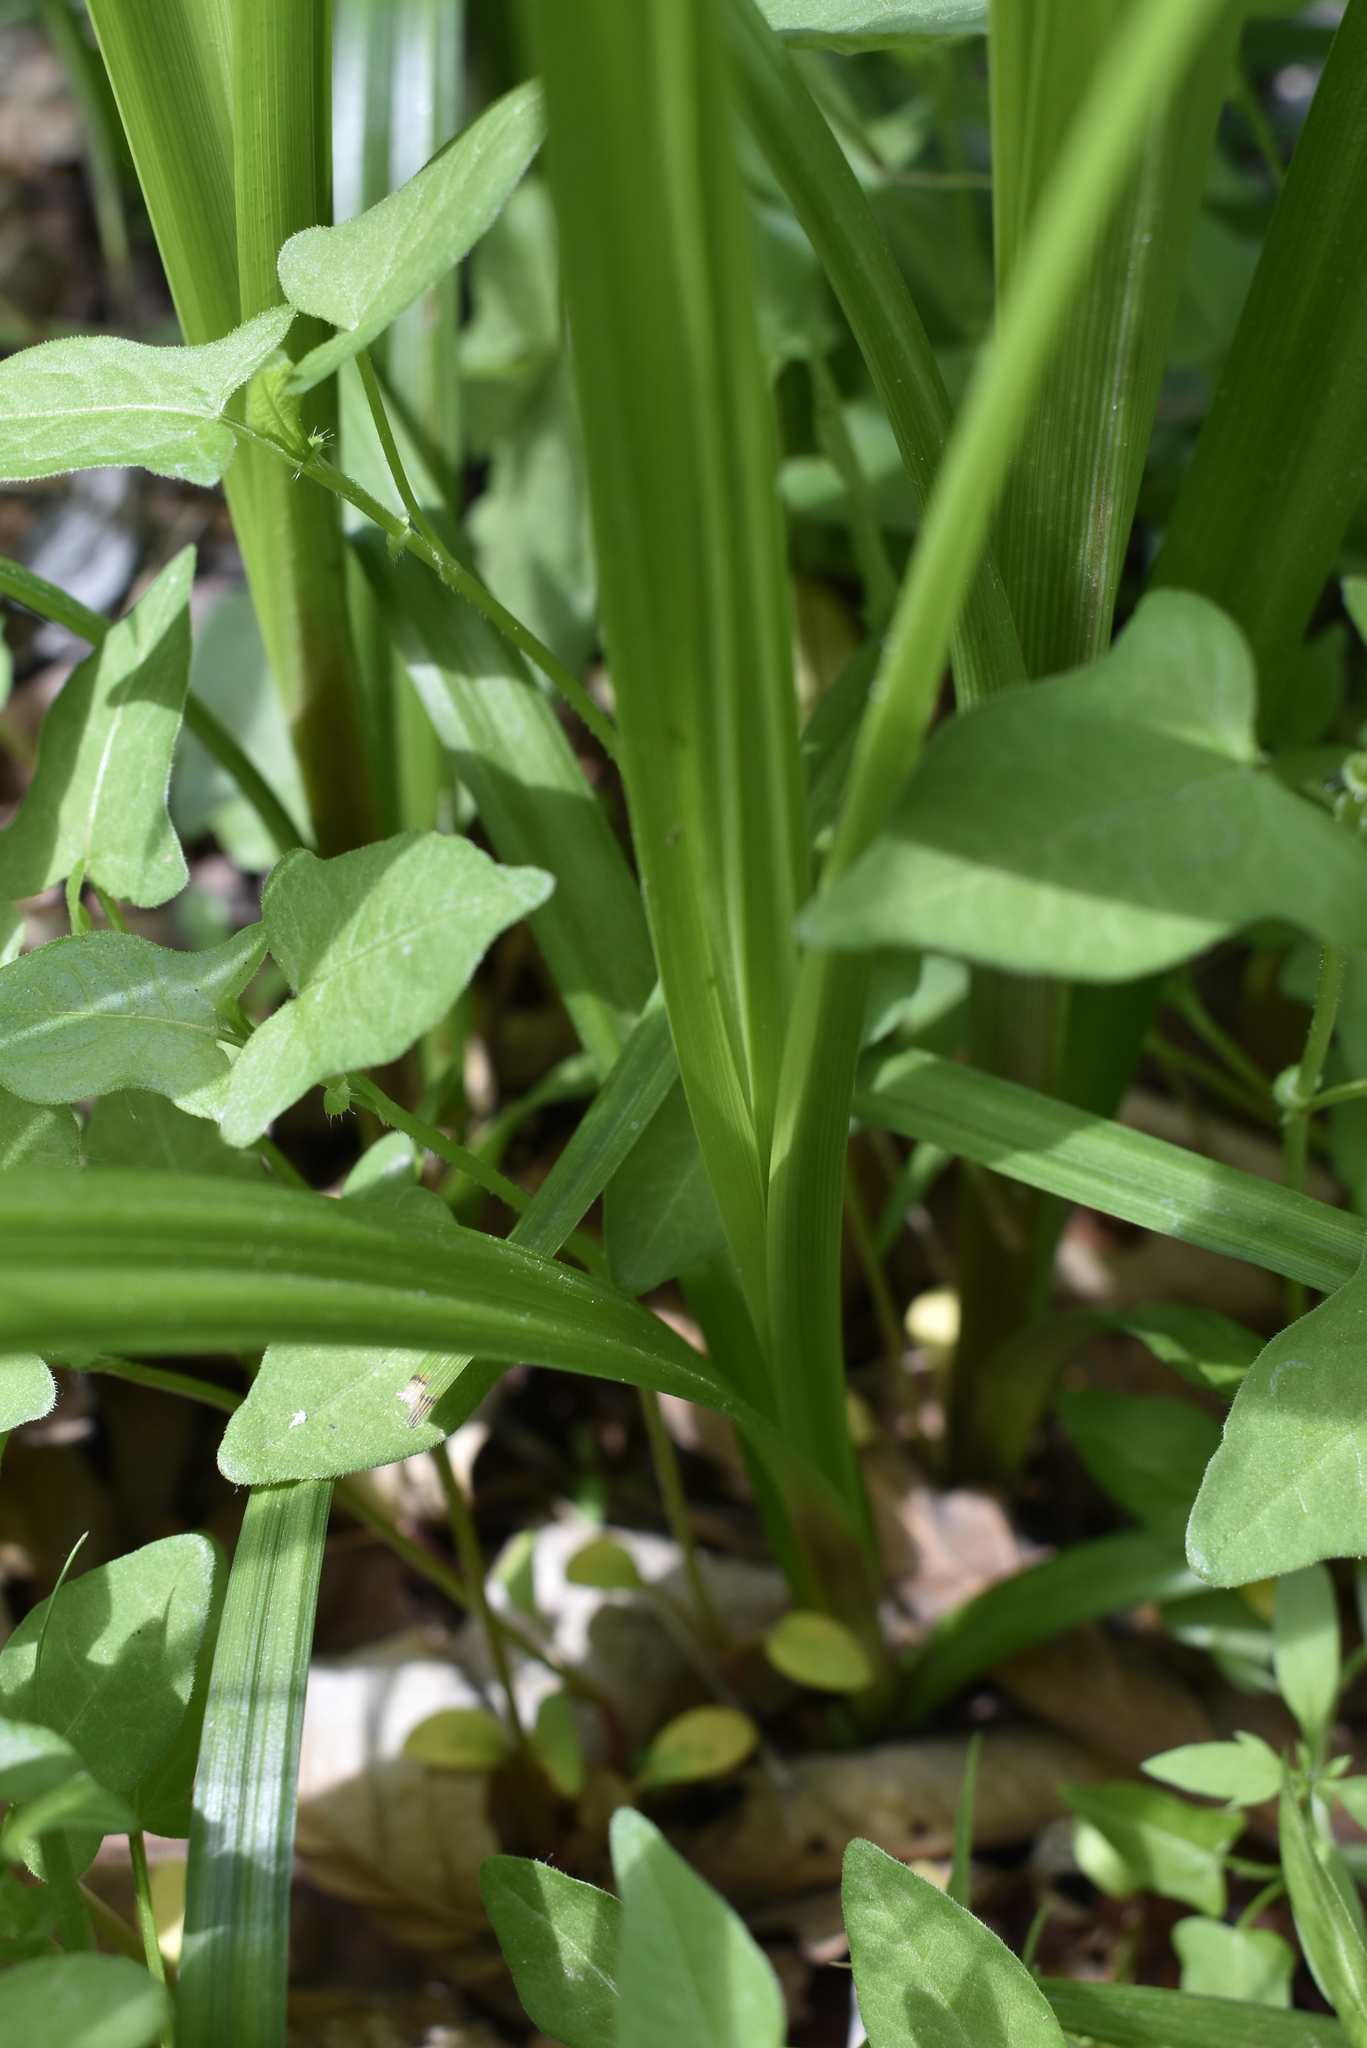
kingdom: Plantae
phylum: Tracheophyta
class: Liliopsida
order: Poales
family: Cyperaceae
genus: Carex
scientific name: Carex utriculata
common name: Beaked sedge
